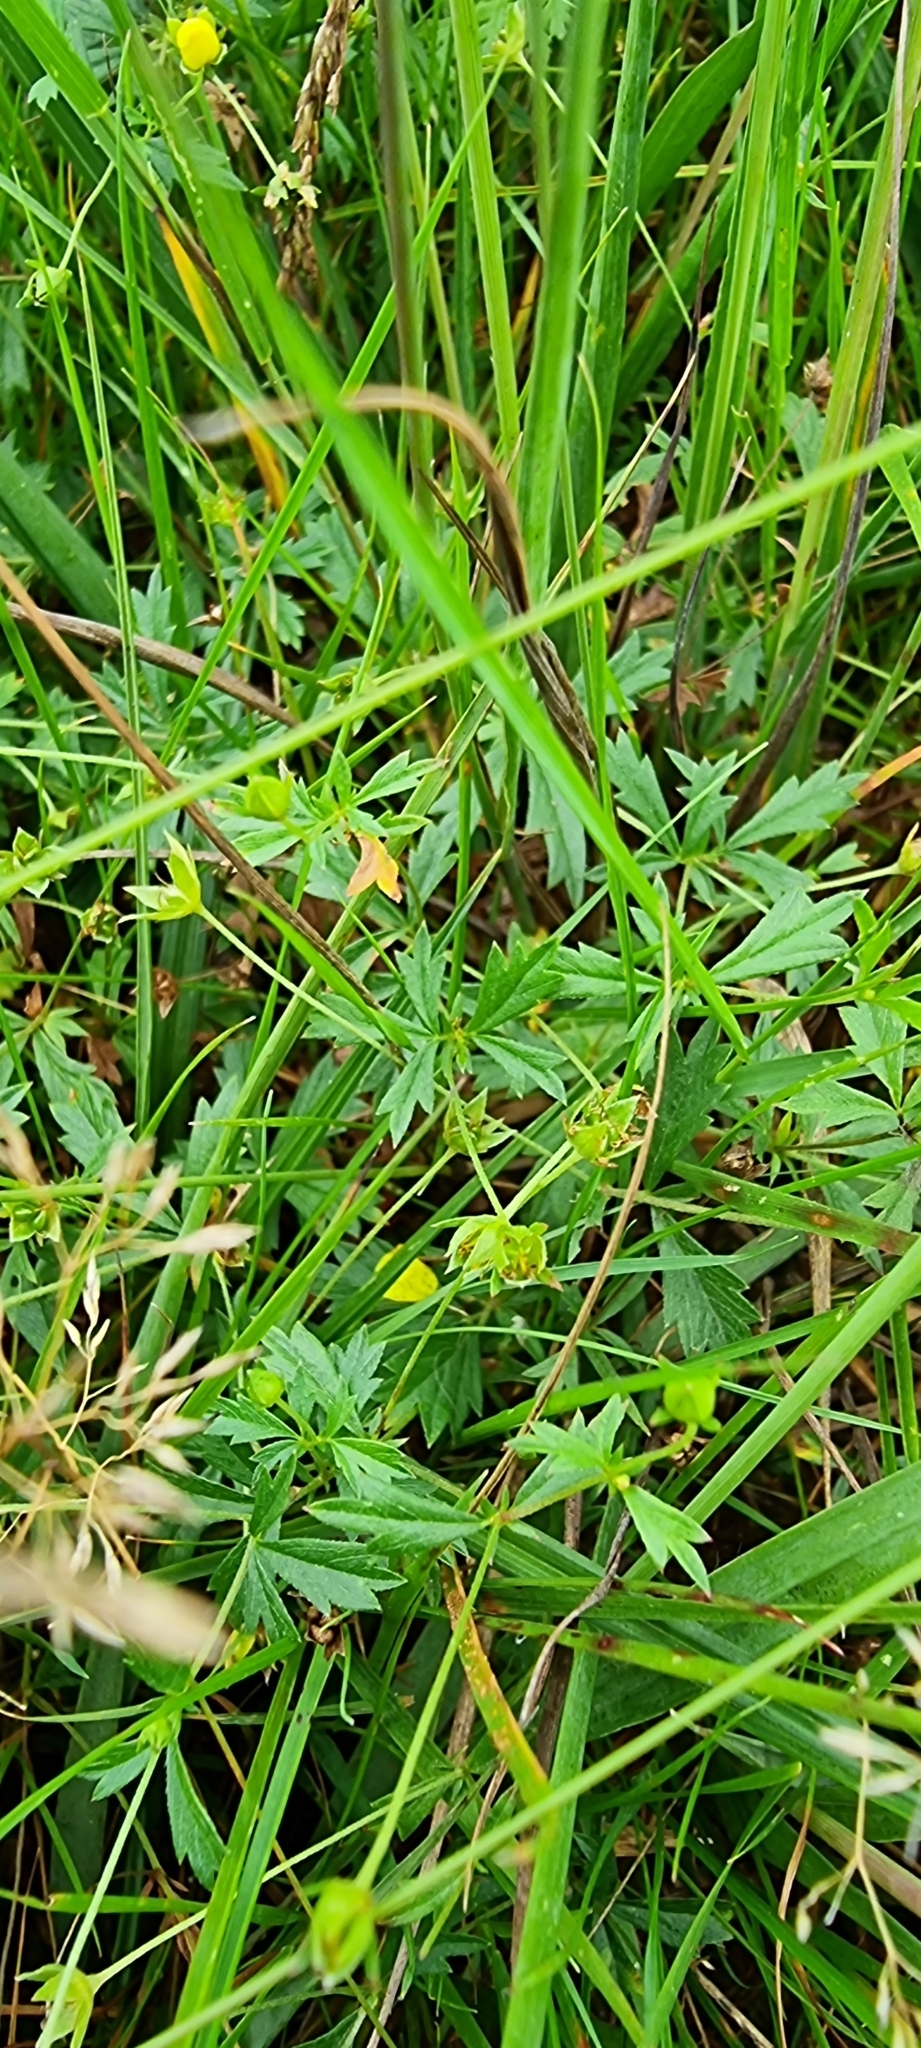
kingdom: Plantae
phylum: Tracheophyta
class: Magnoliopsida
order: Rosales
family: Rosaceae
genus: Potentilla
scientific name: Potentilla erecta
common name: Tormentil
